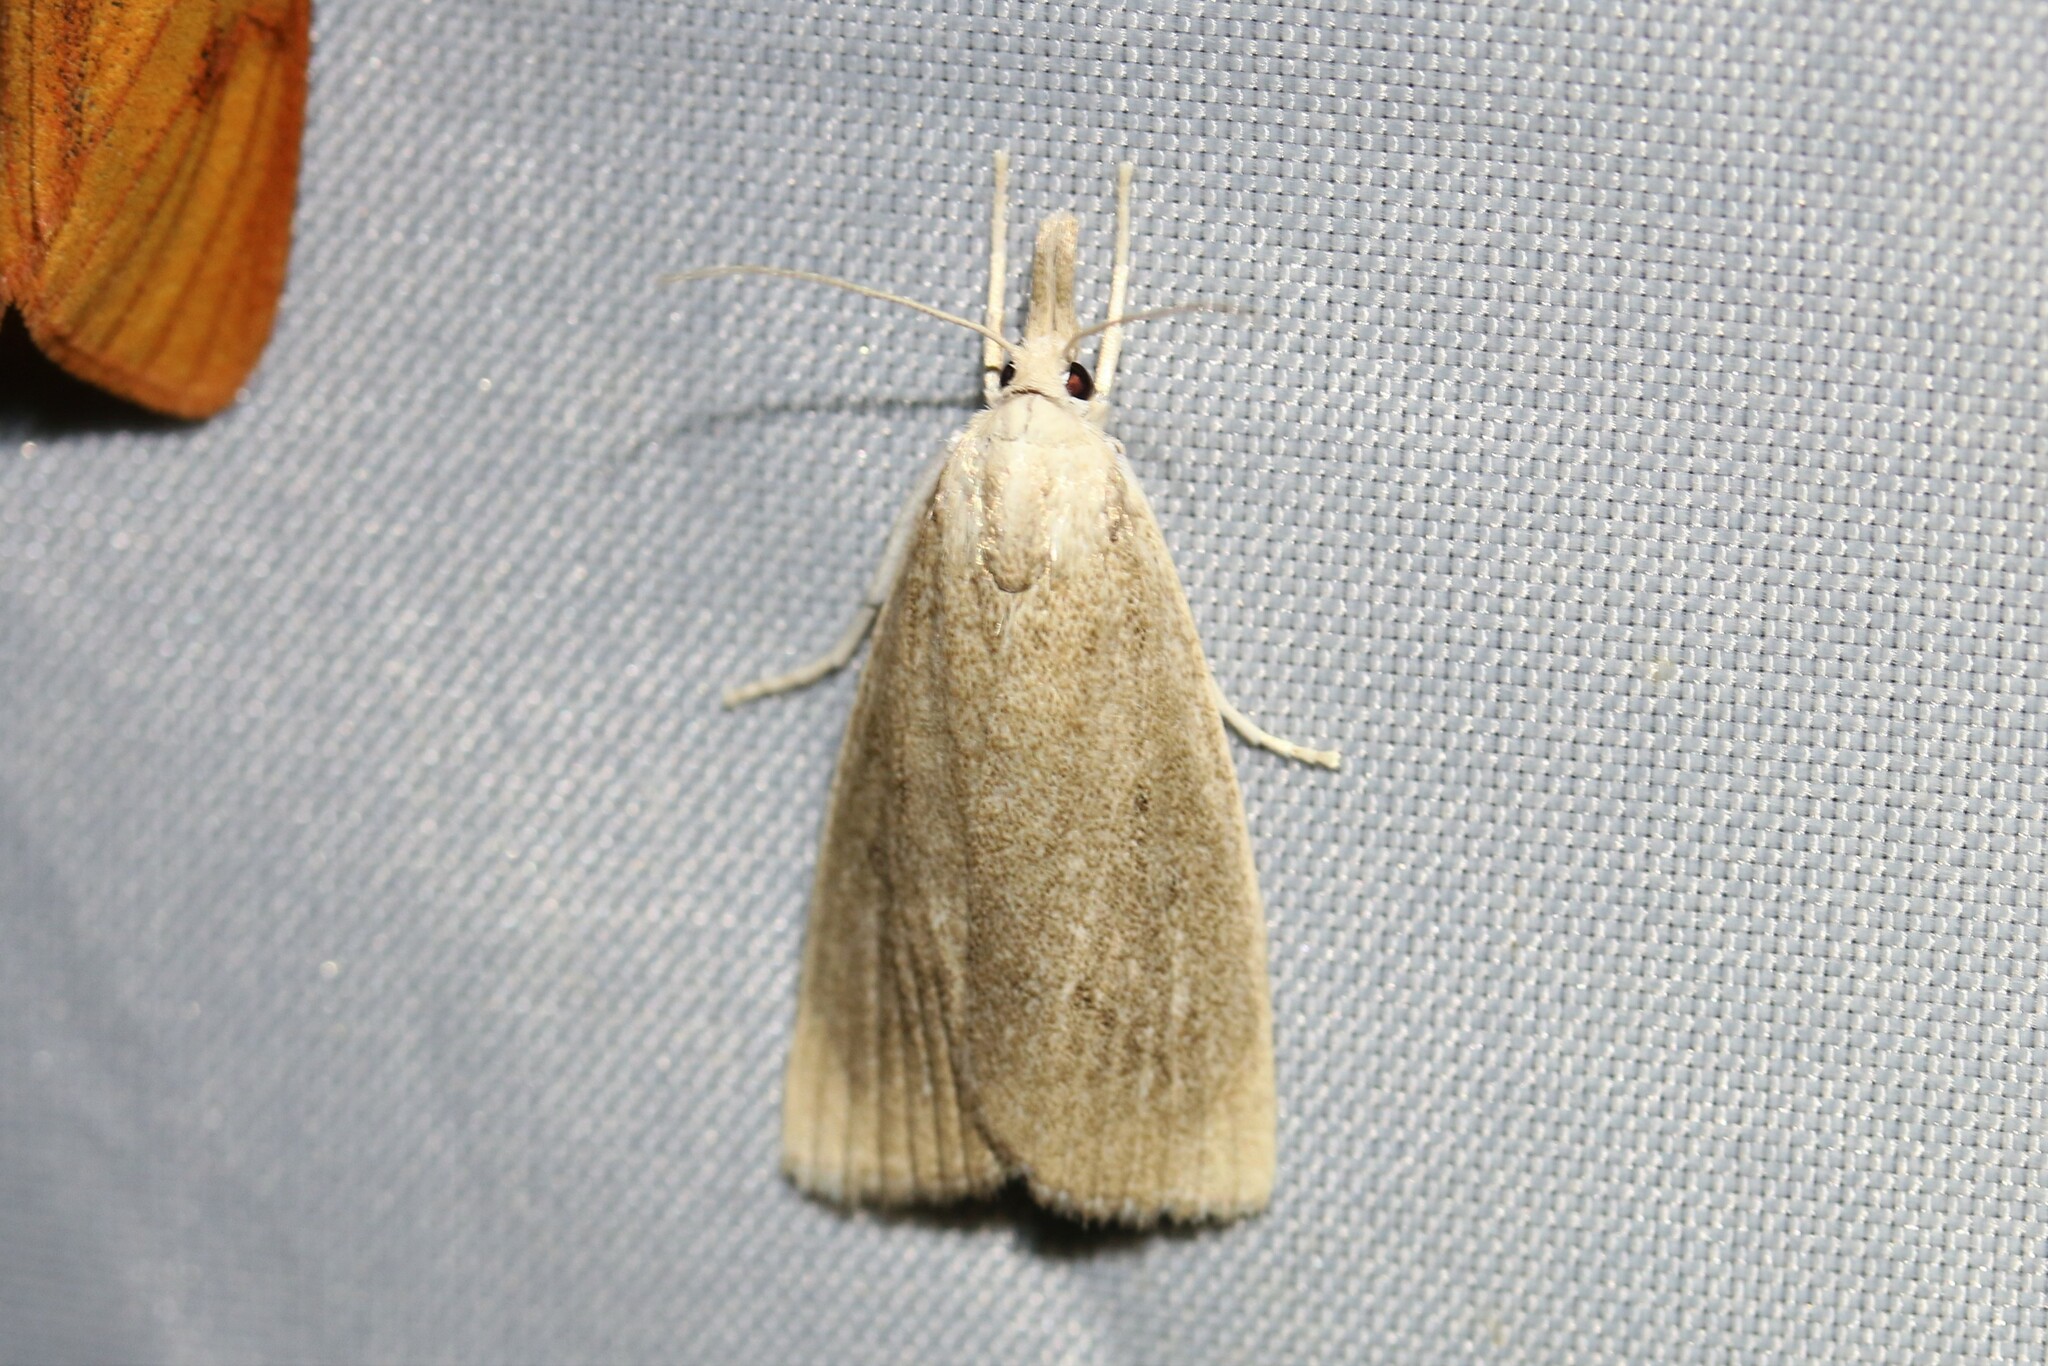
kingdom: Animalia
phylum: Arthropoda
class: Insecta
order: Lepidoptera
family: Crambidae
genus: Calamotropha
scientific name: Calamotropha paludella
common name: Bulrush veneer
